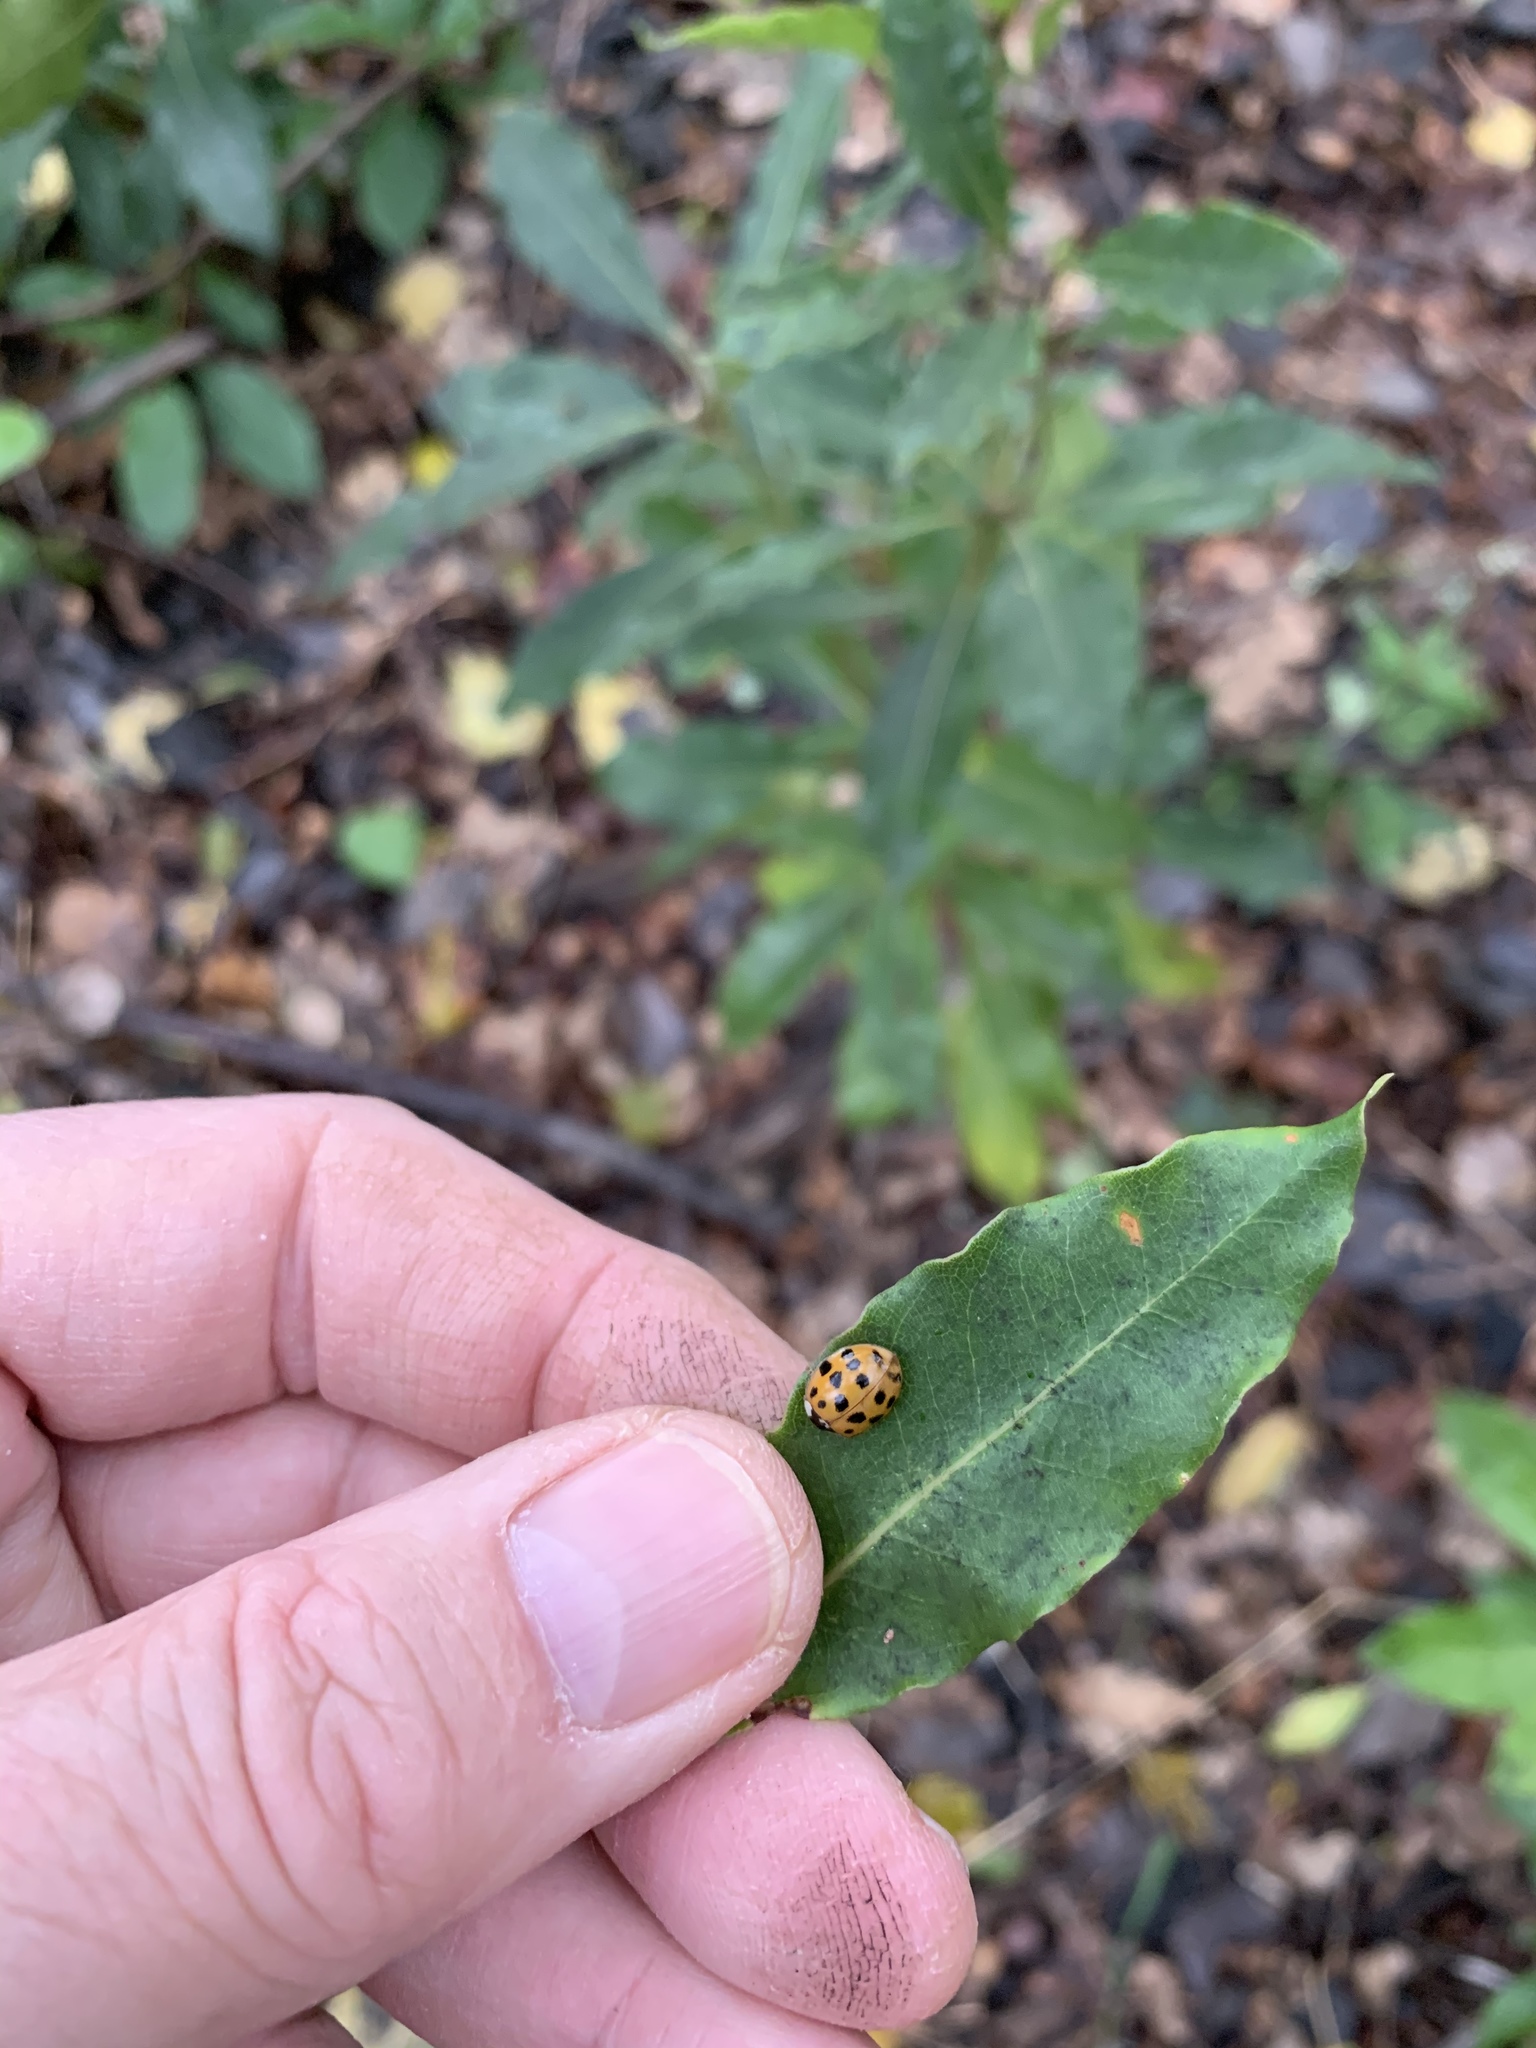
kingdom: Animalia
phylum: Arthropoda
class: Insecta
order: Coleoptera
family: Coccinellidae
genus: Harmonia
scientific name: Harmonia axyridis
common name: Harlequin ladybird
